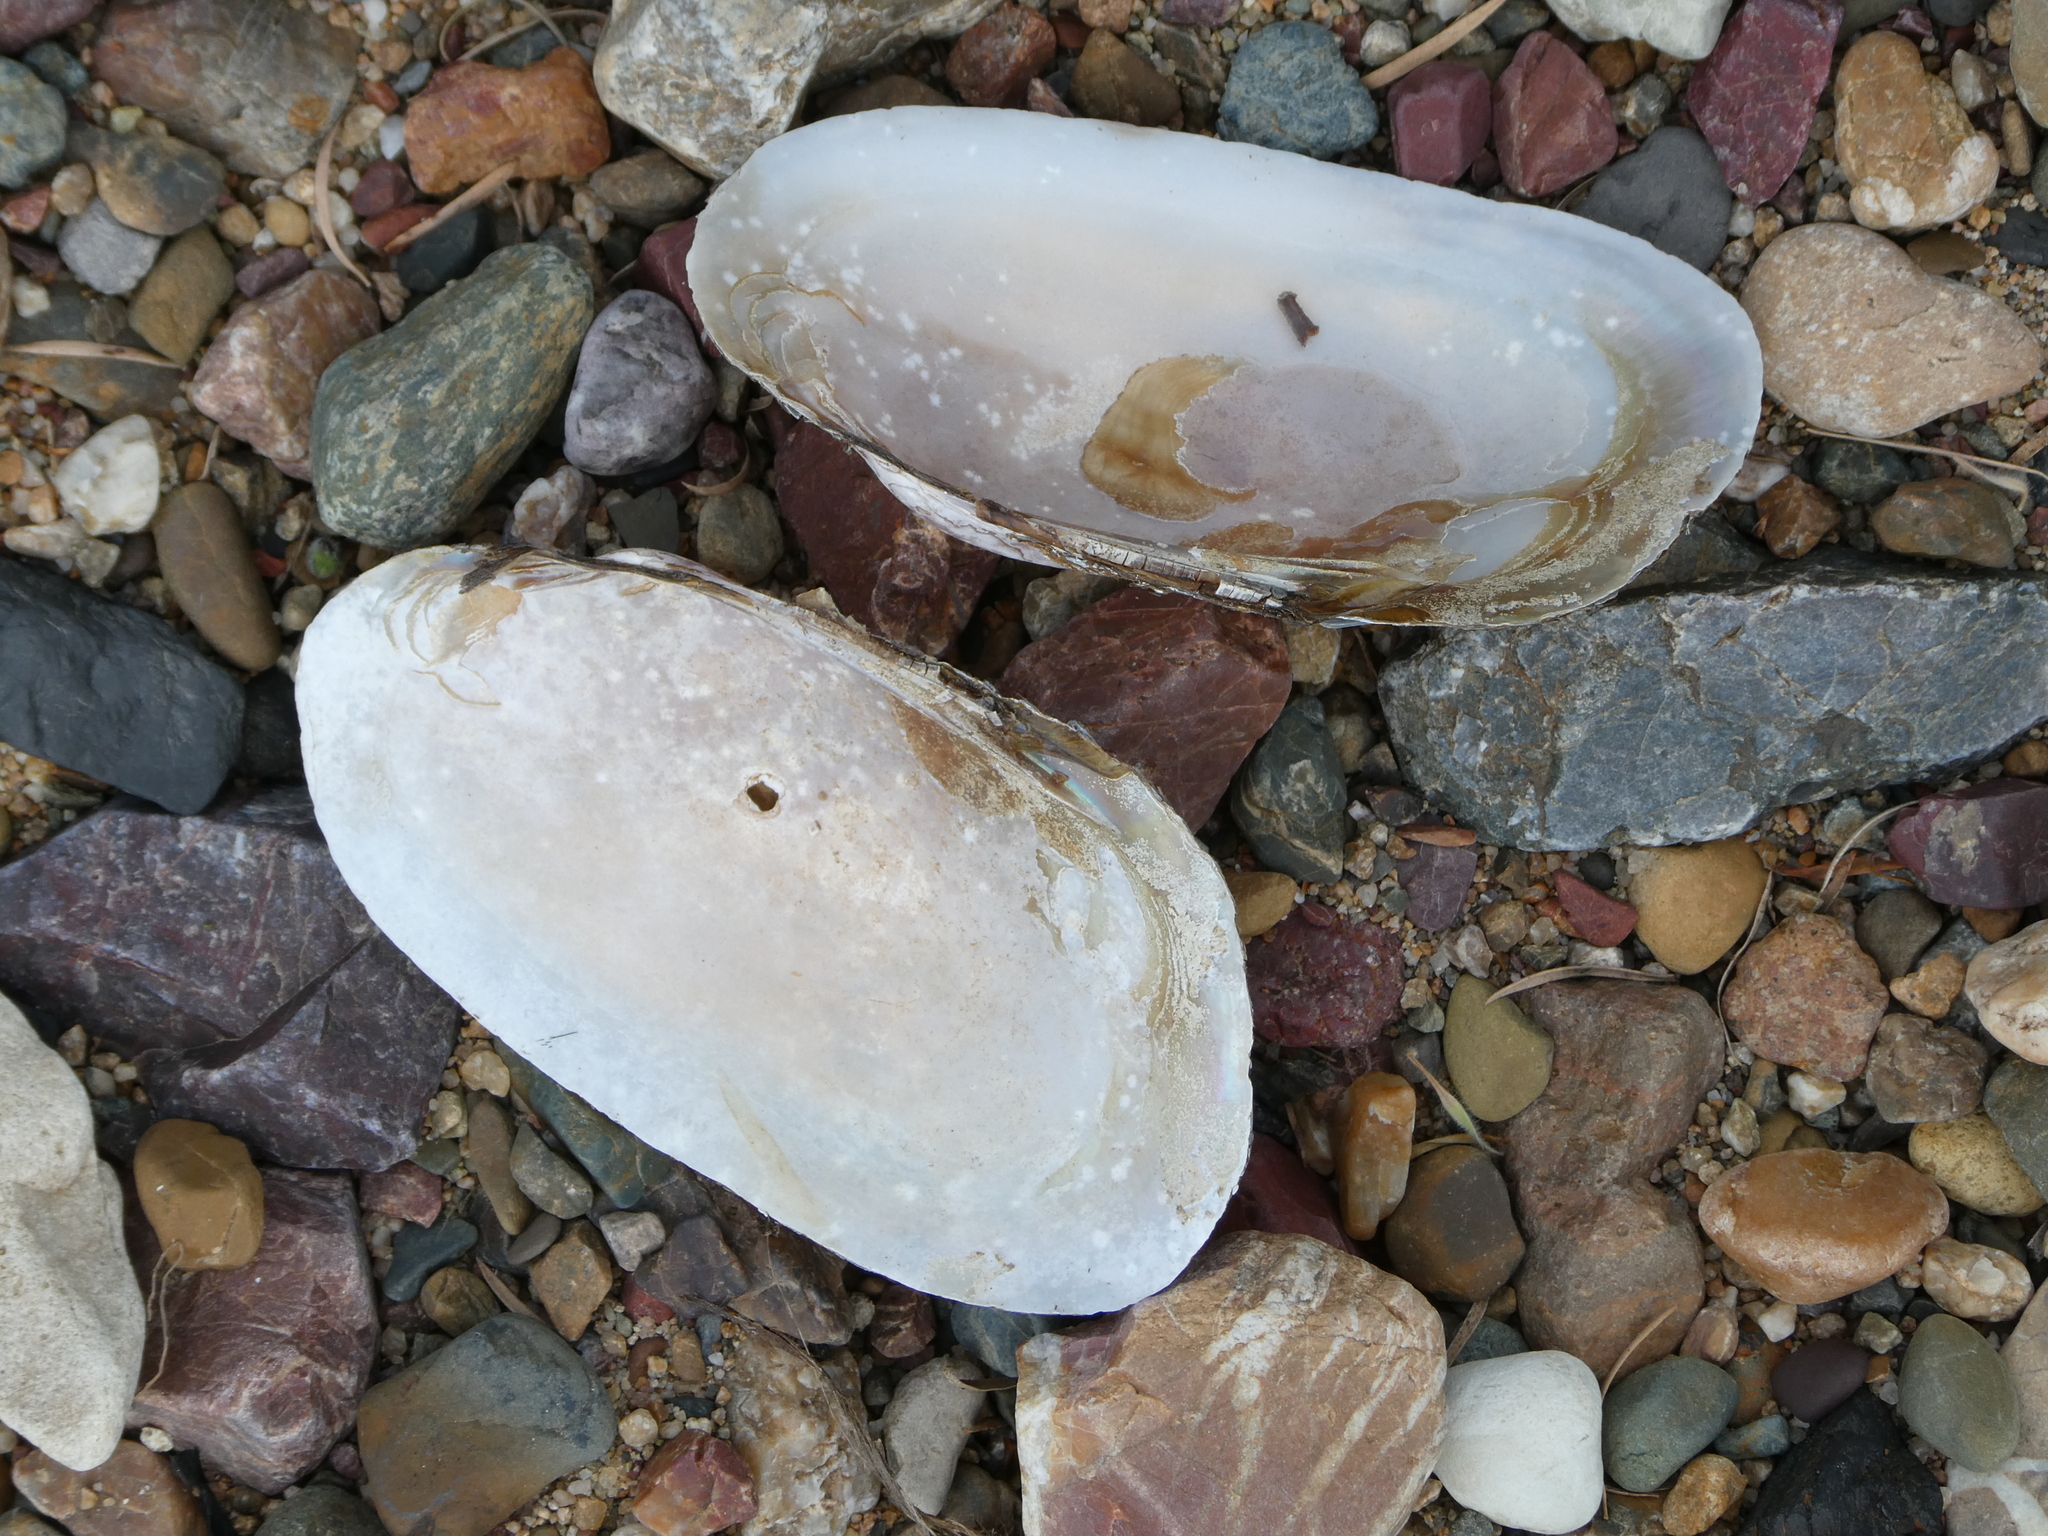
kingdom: Animalia
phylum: Mollusca
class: Bivalvia
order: Unionida
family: Hyriidae
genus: Alathyria
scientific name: Alathyria pertexta
